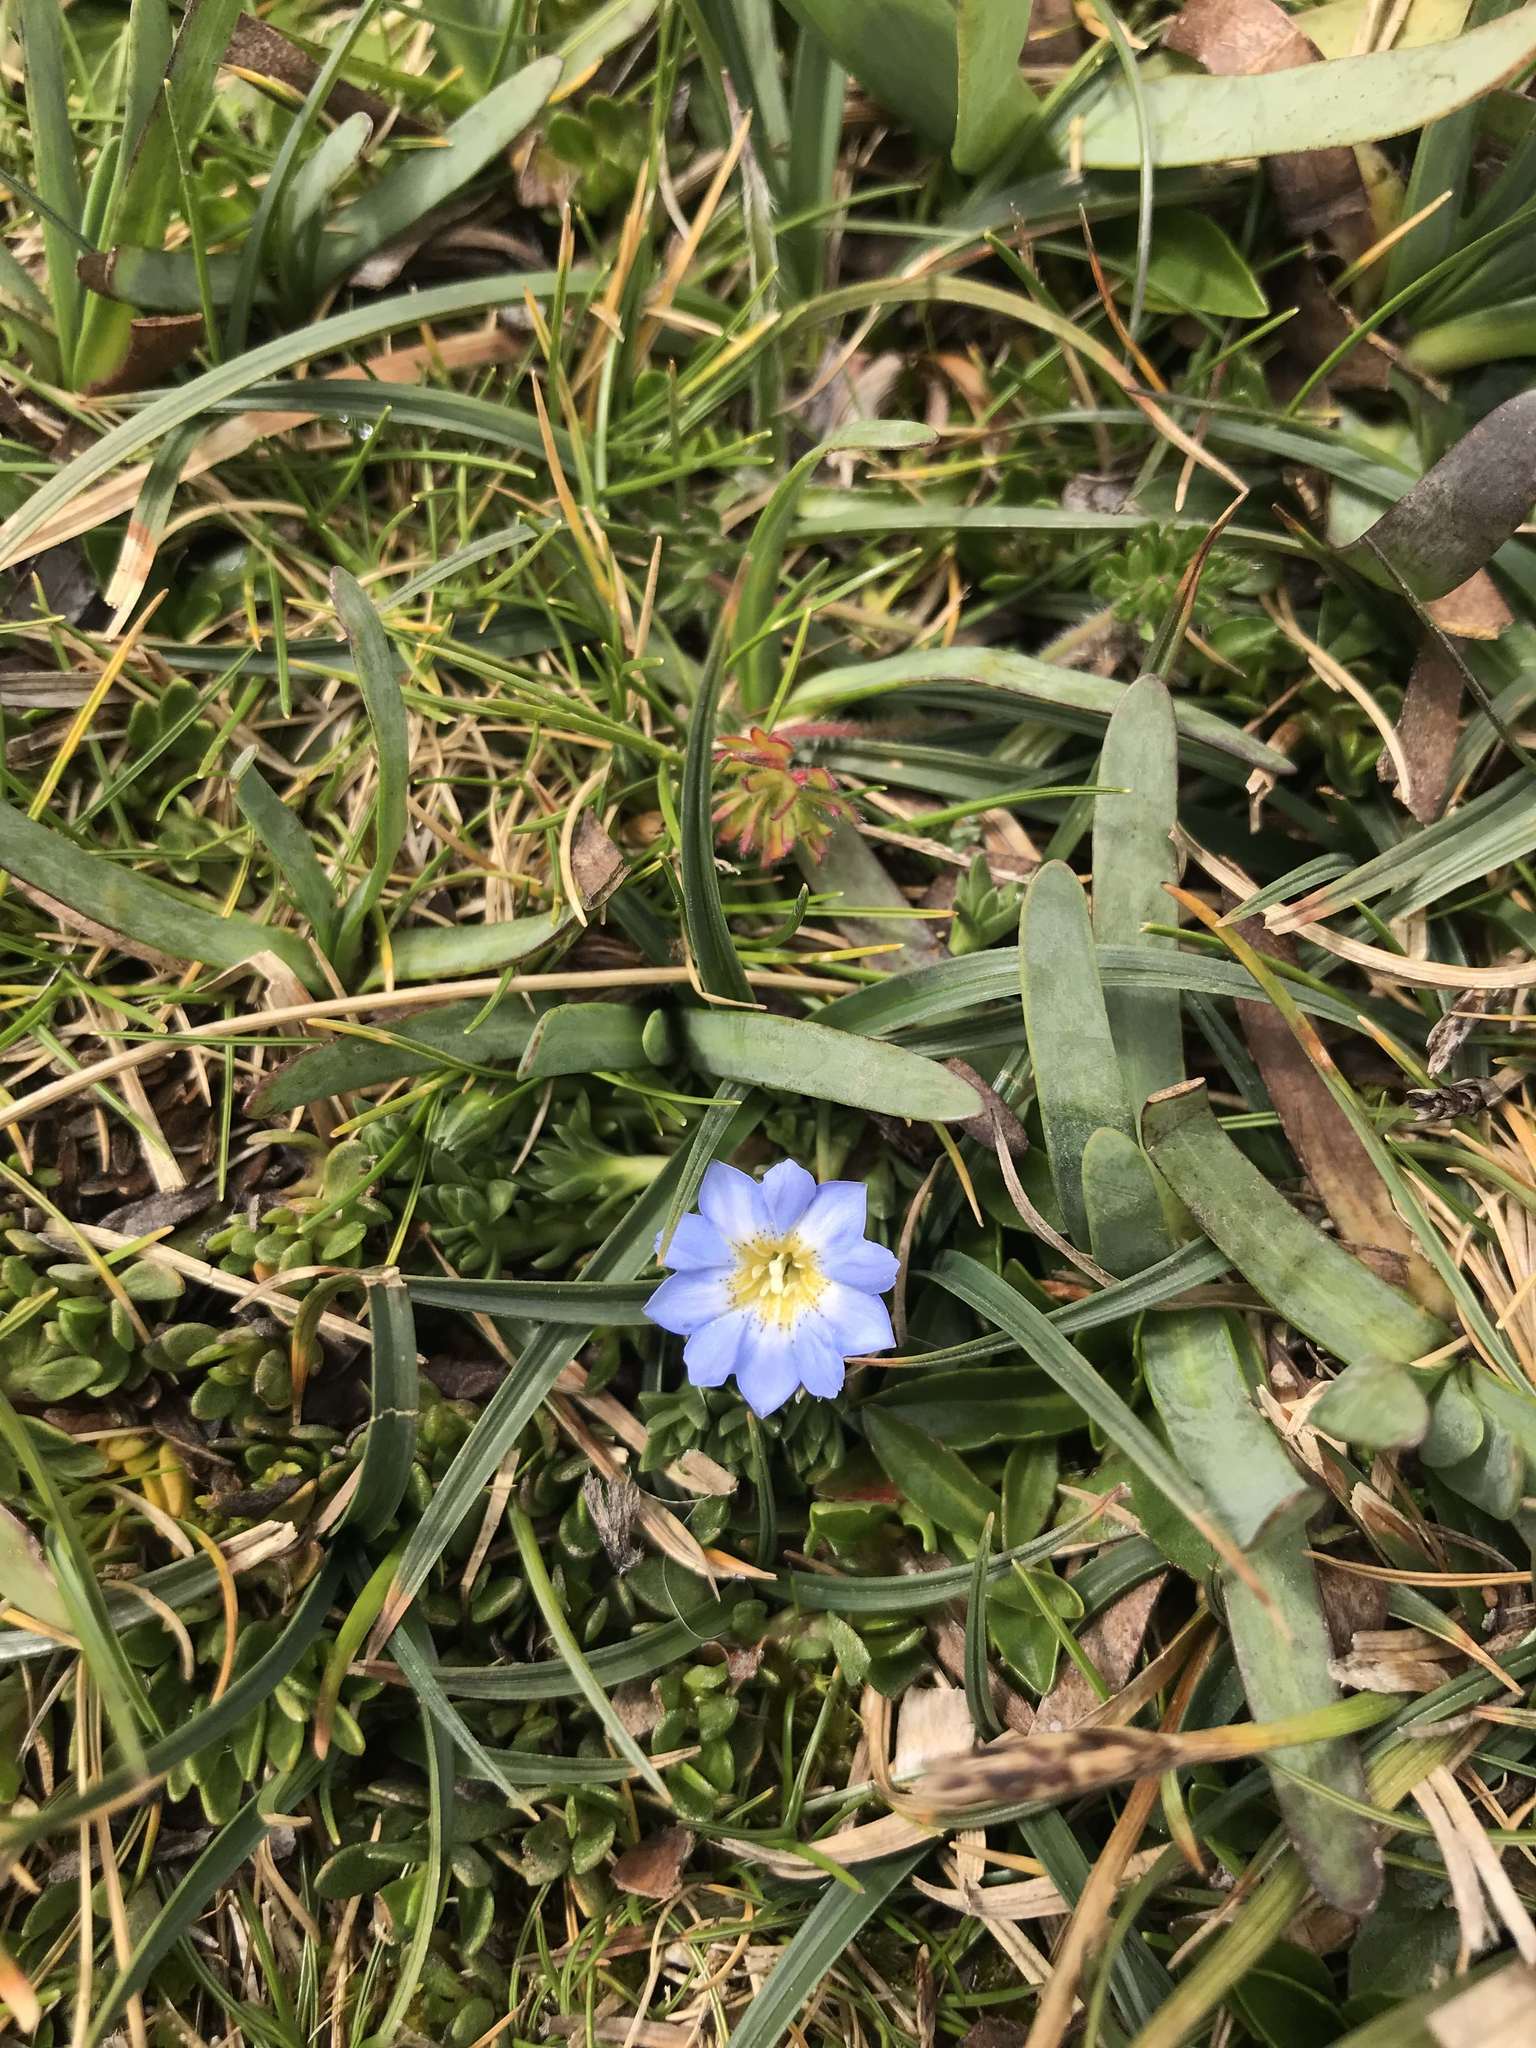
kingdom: Plantae
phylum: Tracheophyta
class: Magnoliopsida
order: Gentianales
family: Gentianaceae
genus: Gentiana
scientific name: Gentiana sedifolia
